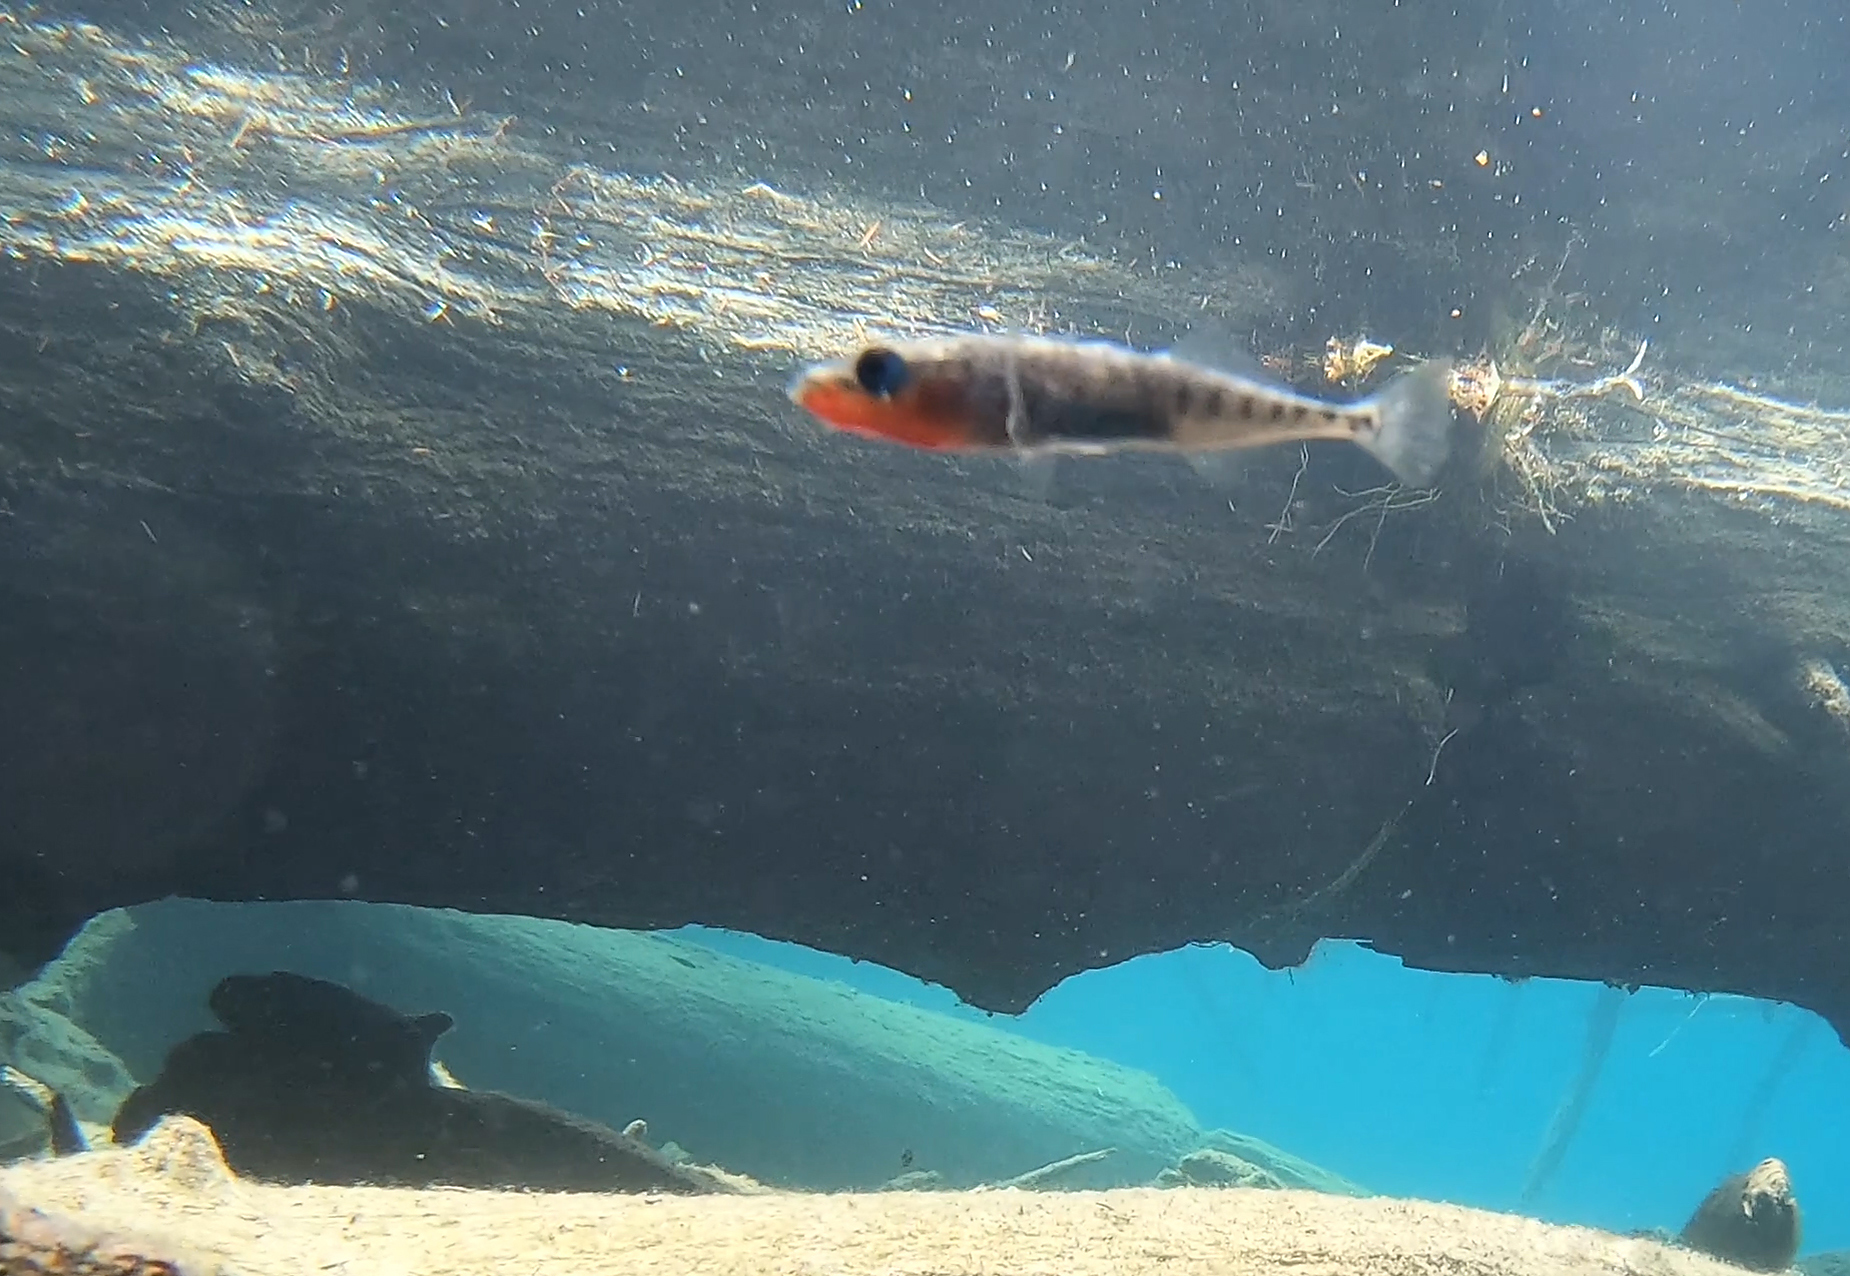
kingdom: Animalia
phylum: Chordata
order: Gasterosteiformes
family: Gasterosteidae
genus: Gasterosteus
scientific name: Gasterosteus aculeatus
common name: Three-spined stickleback
